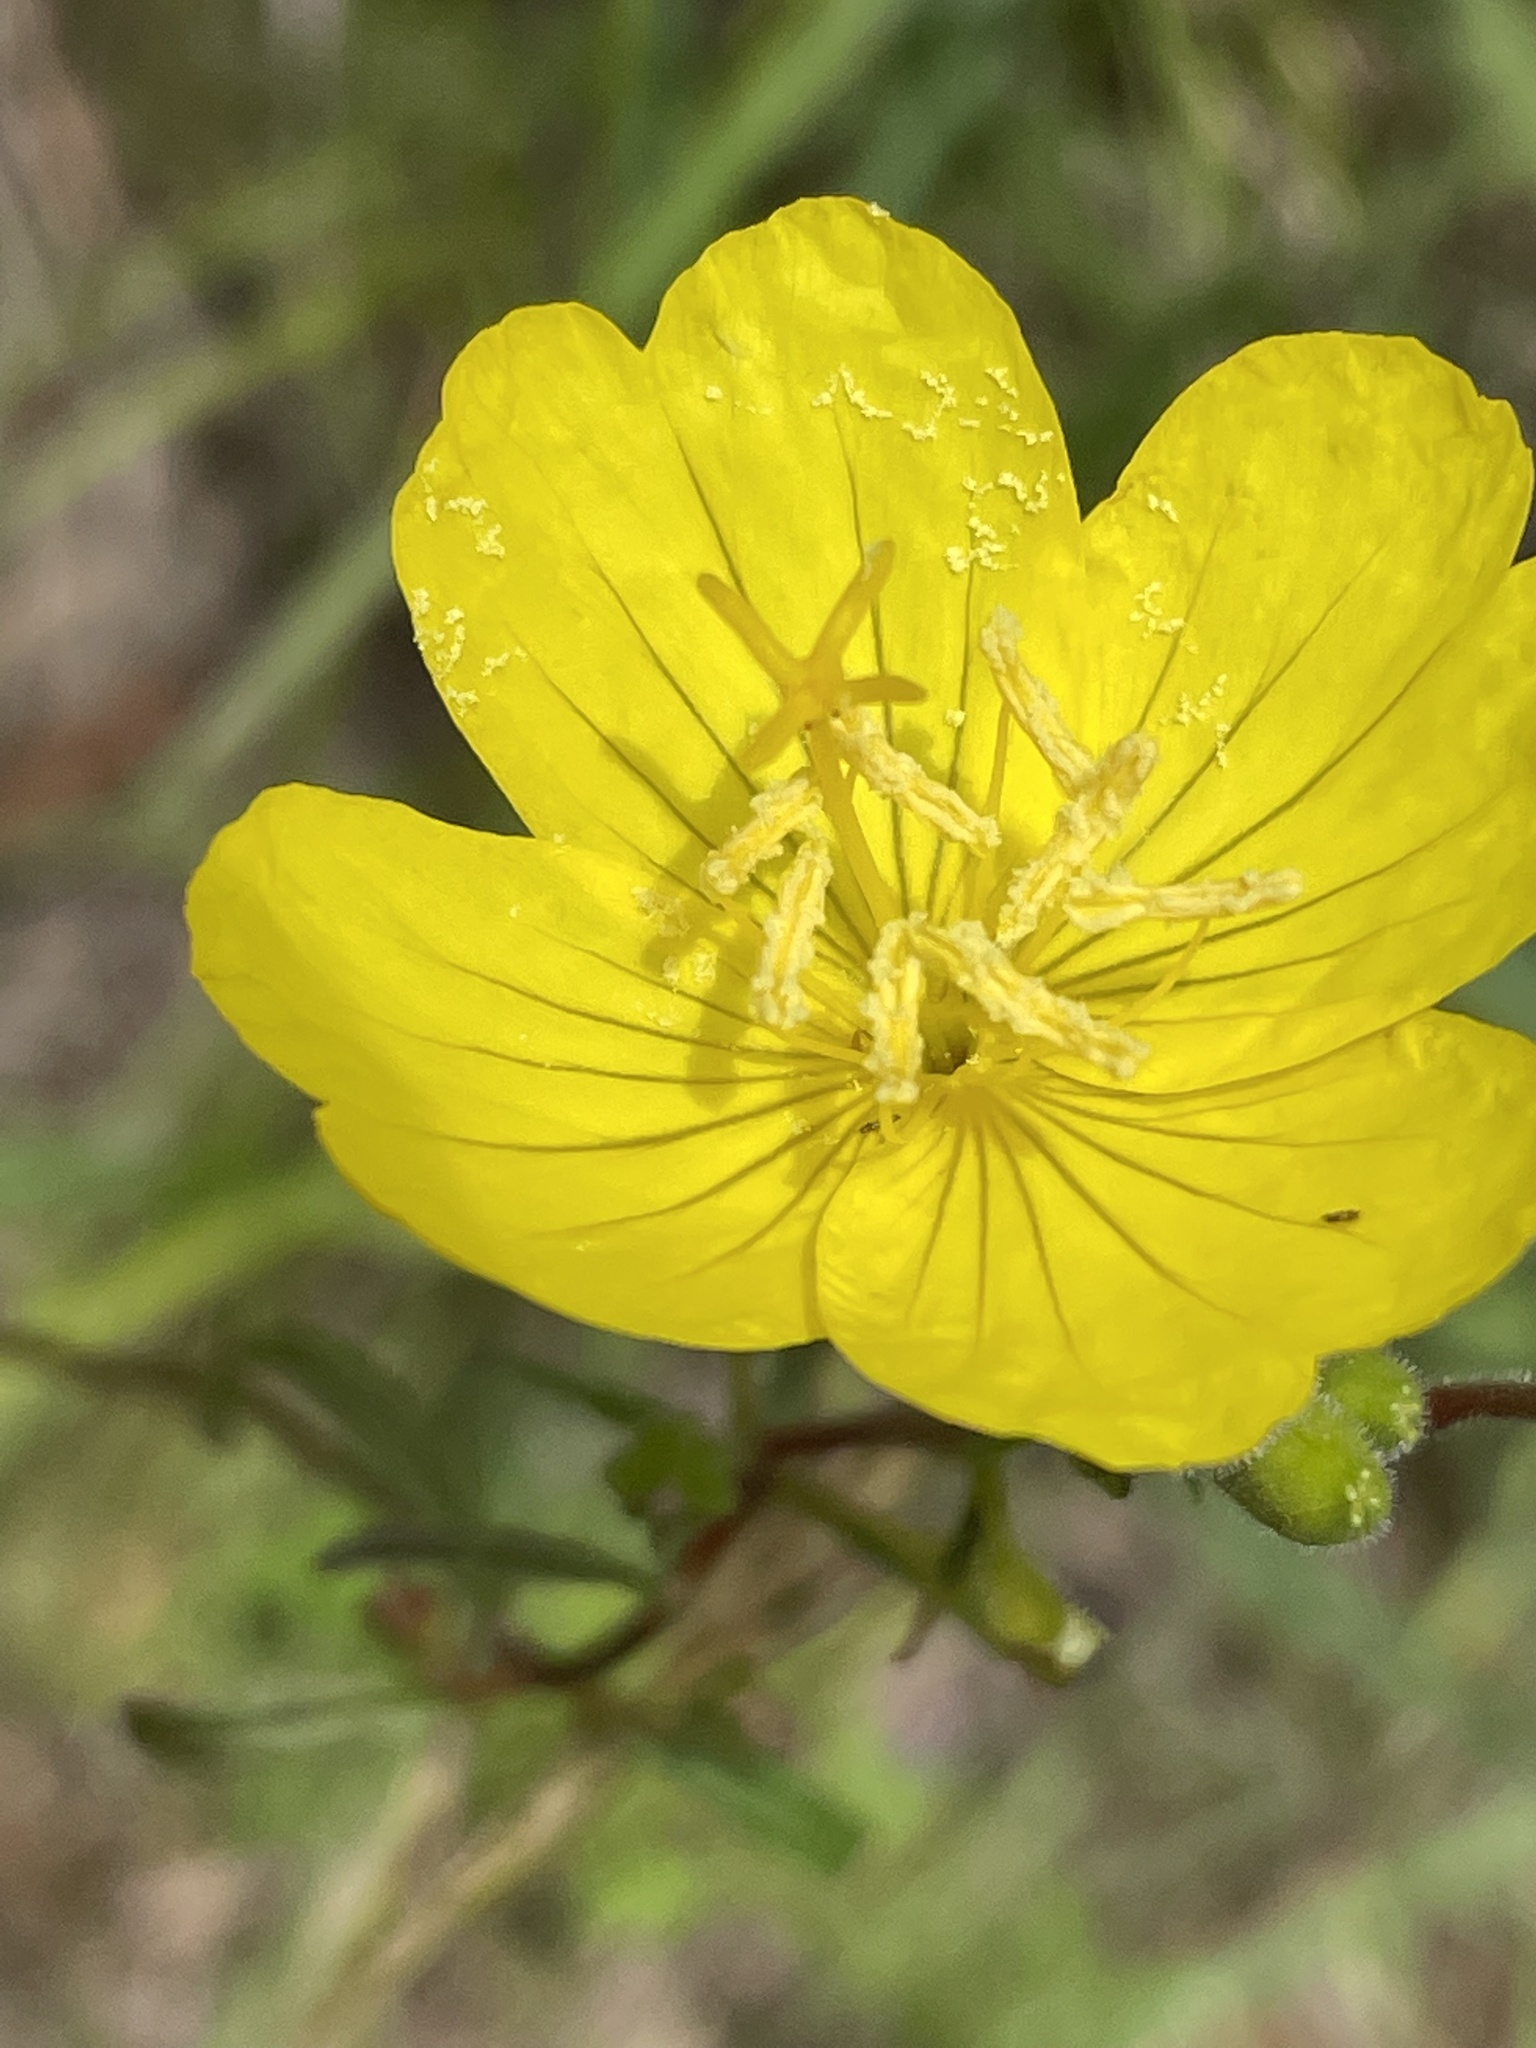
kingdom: Plantae
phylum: Tracheophyta
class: Magnoliopsida
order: Myrtales
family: Onagraceae
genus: Oenothera
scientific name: Oenothera fruticosa
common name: Southern sundrops
